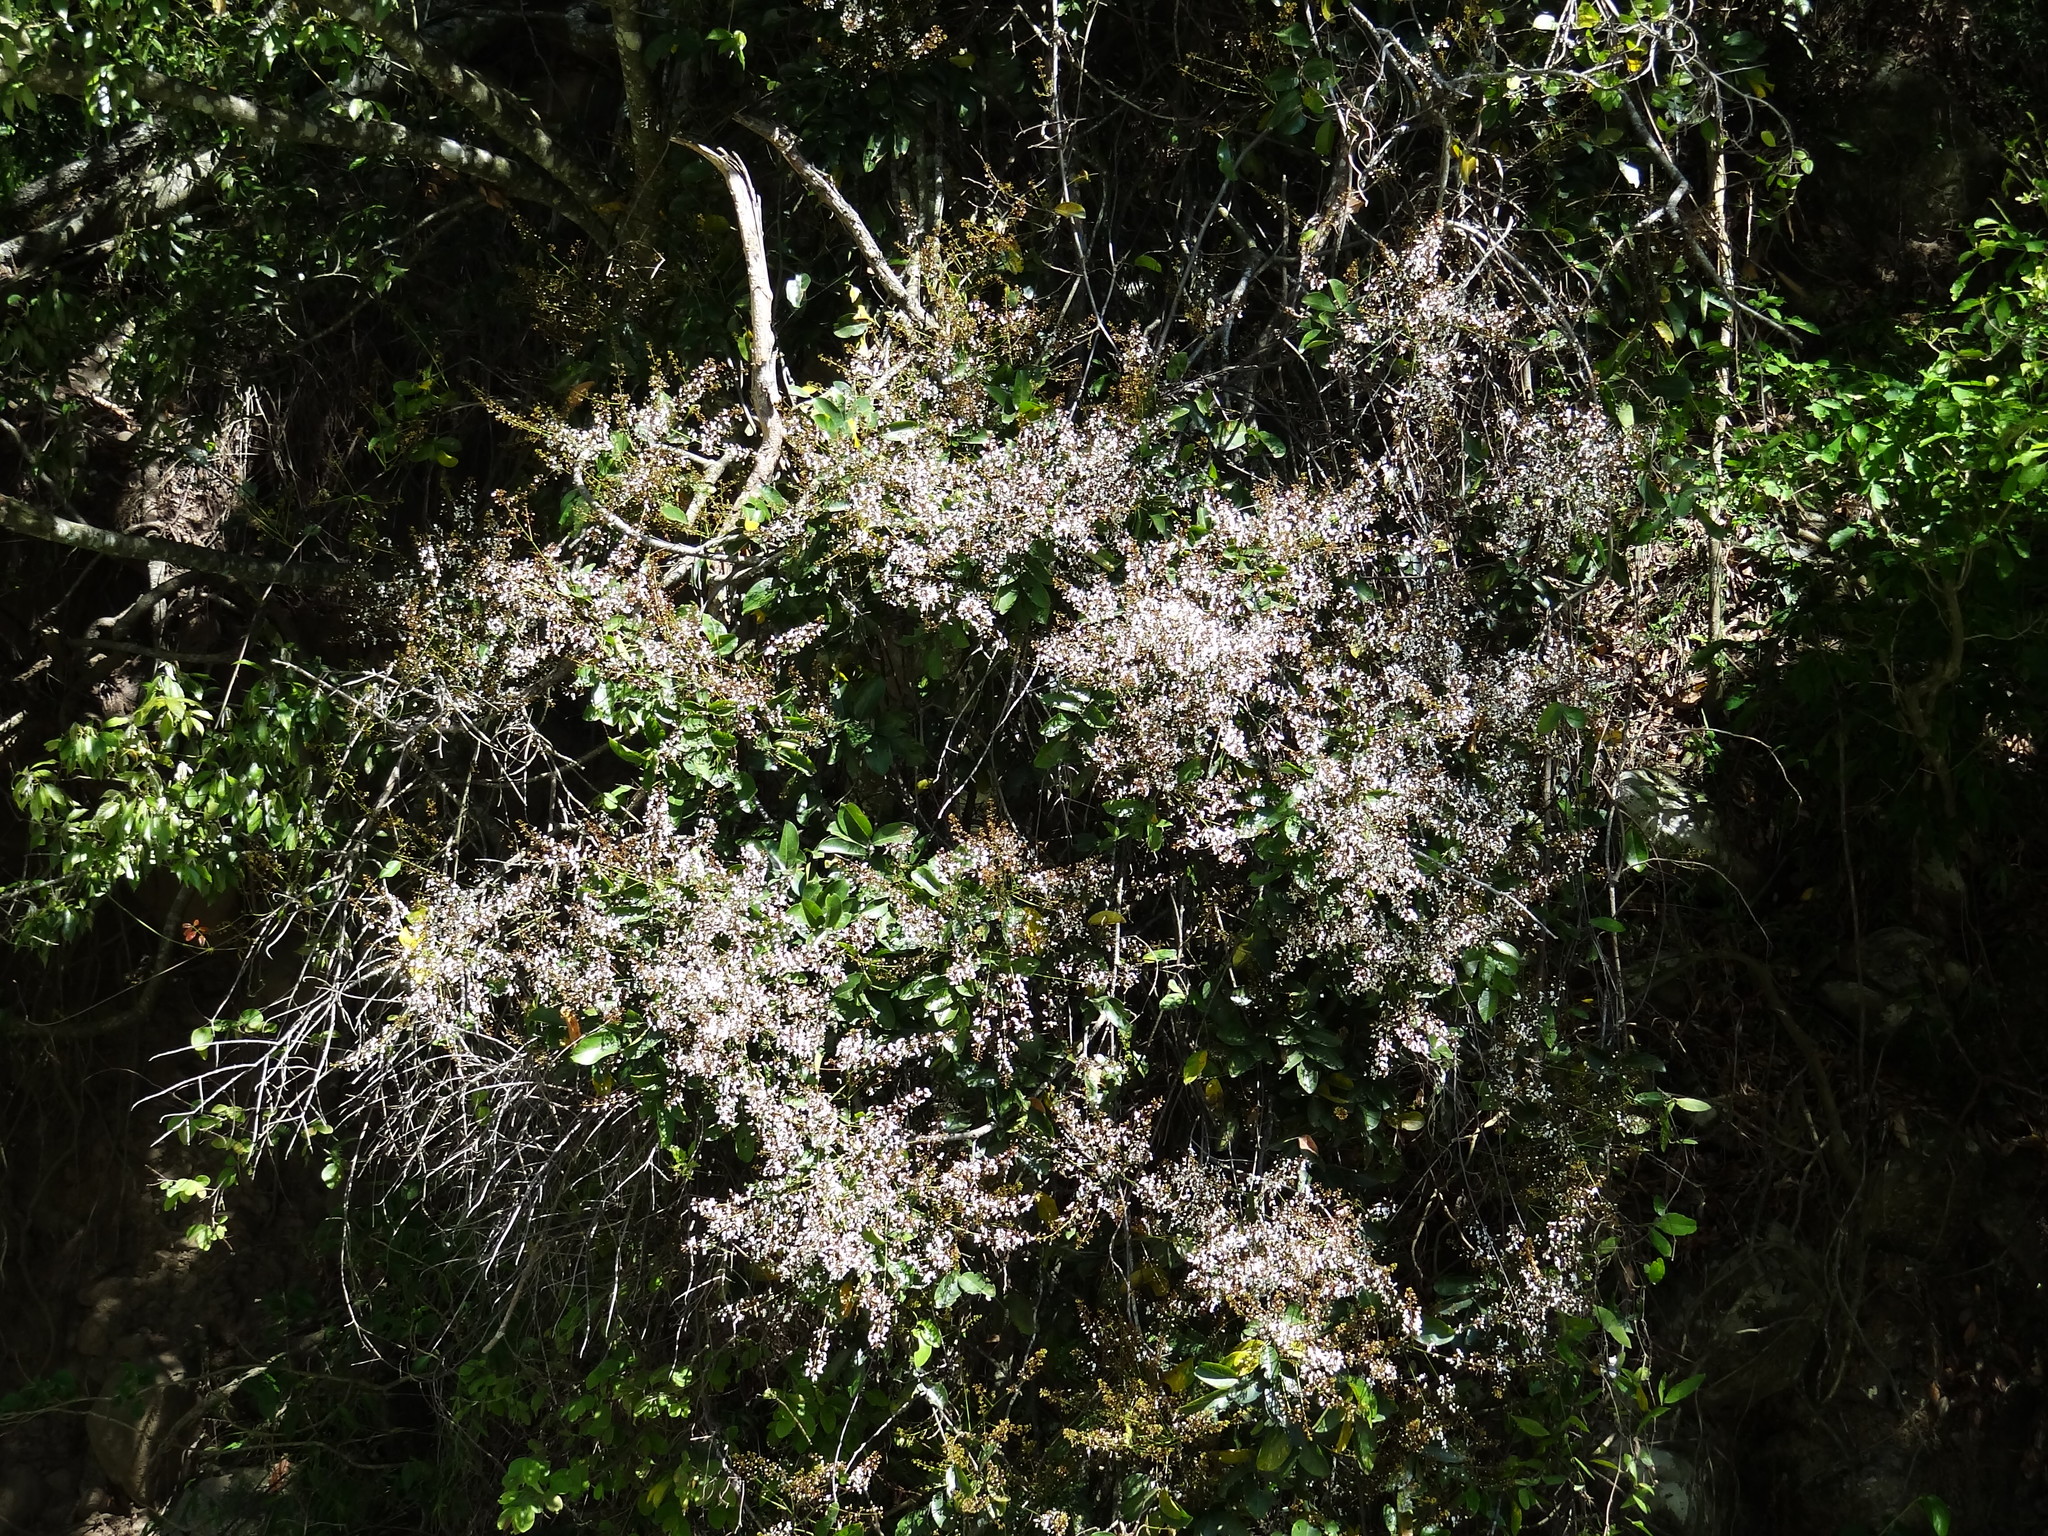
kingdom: Plantae
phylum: Tracheophyta
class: Magnoliopsida
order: Fabales
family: Fabaceae
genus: Derris
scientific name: Derris laxiflora
